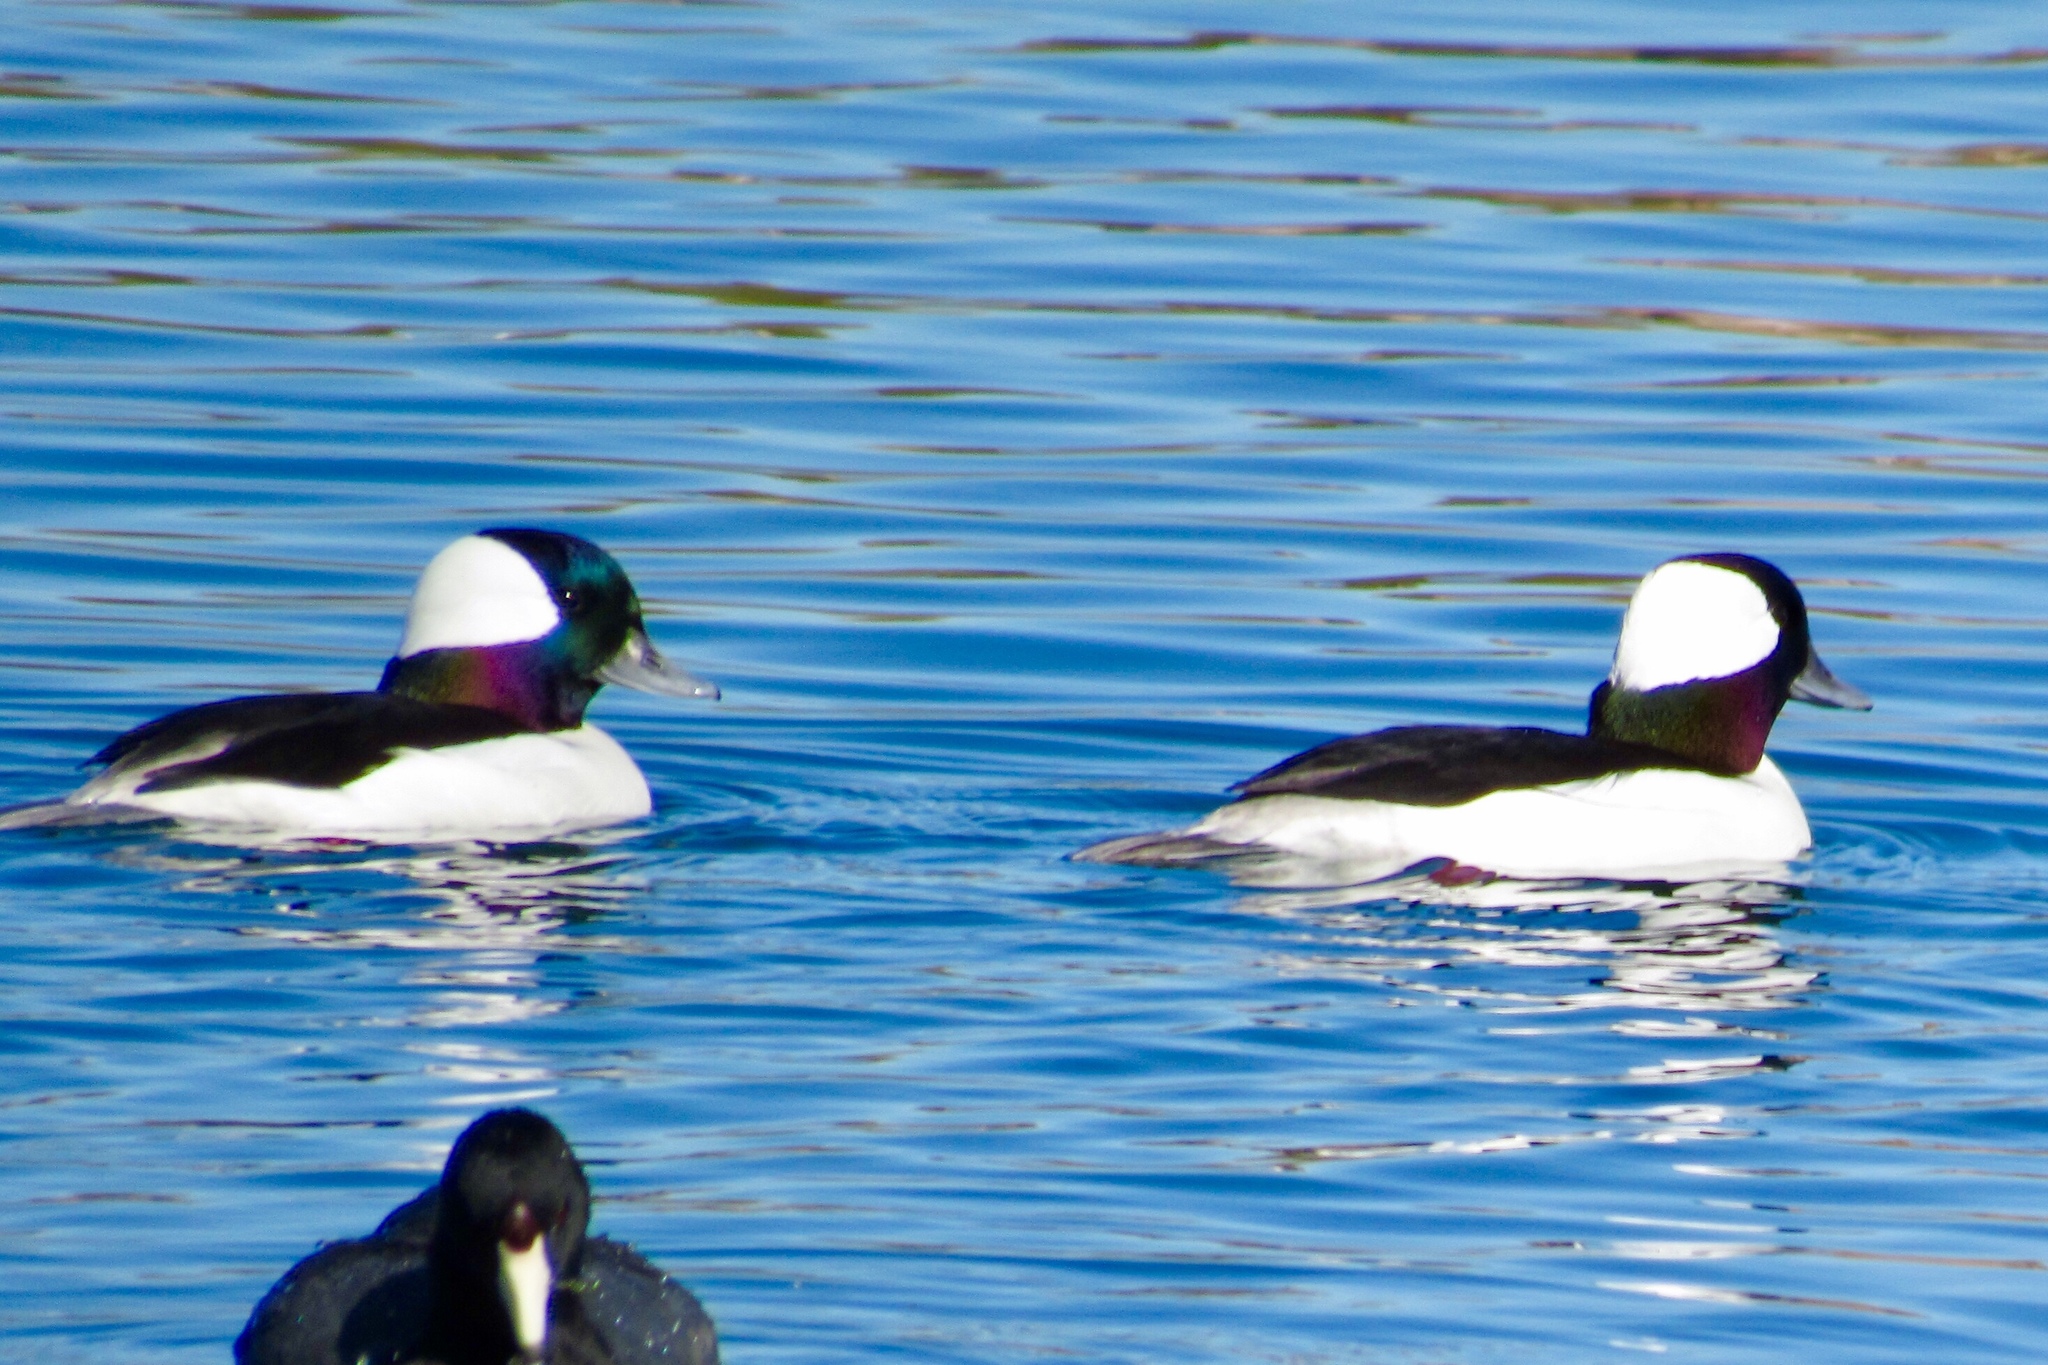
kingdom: Animalia
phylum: Chordata
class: Aves
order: Anseriformes
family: Anatidae
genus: Bucephala
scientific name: Bucephala albeola
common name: Bufflehead
